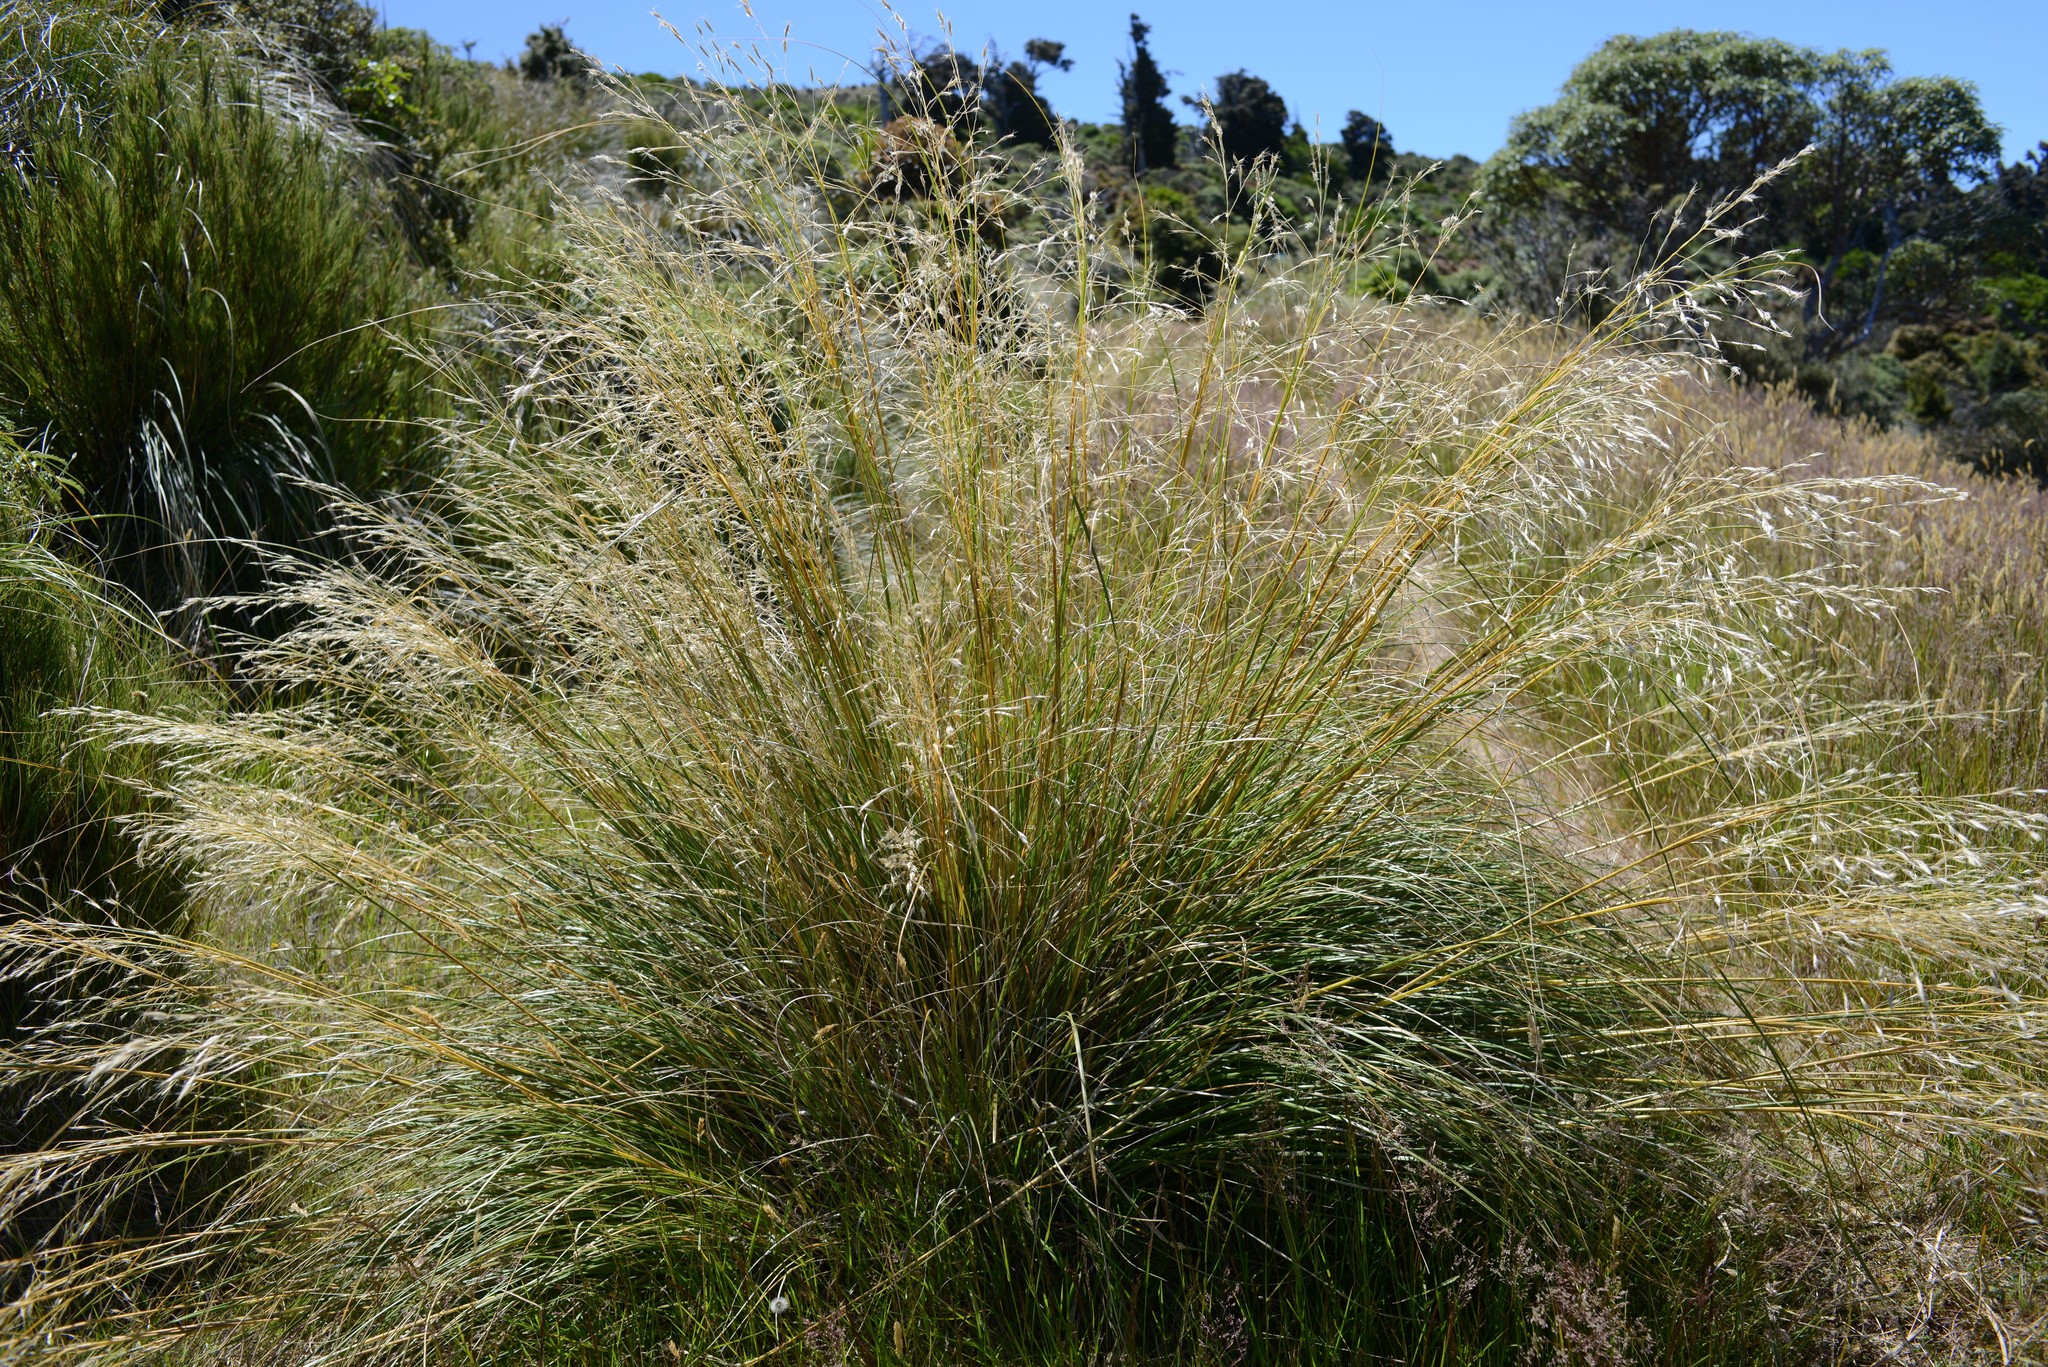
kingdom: Plantae
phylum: Tracheophyta
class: Liliopsida
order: Poales
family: Poaceae
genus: Chionochloa
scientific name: Chionochloa rigida
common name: Narrow leaved snow tussock
